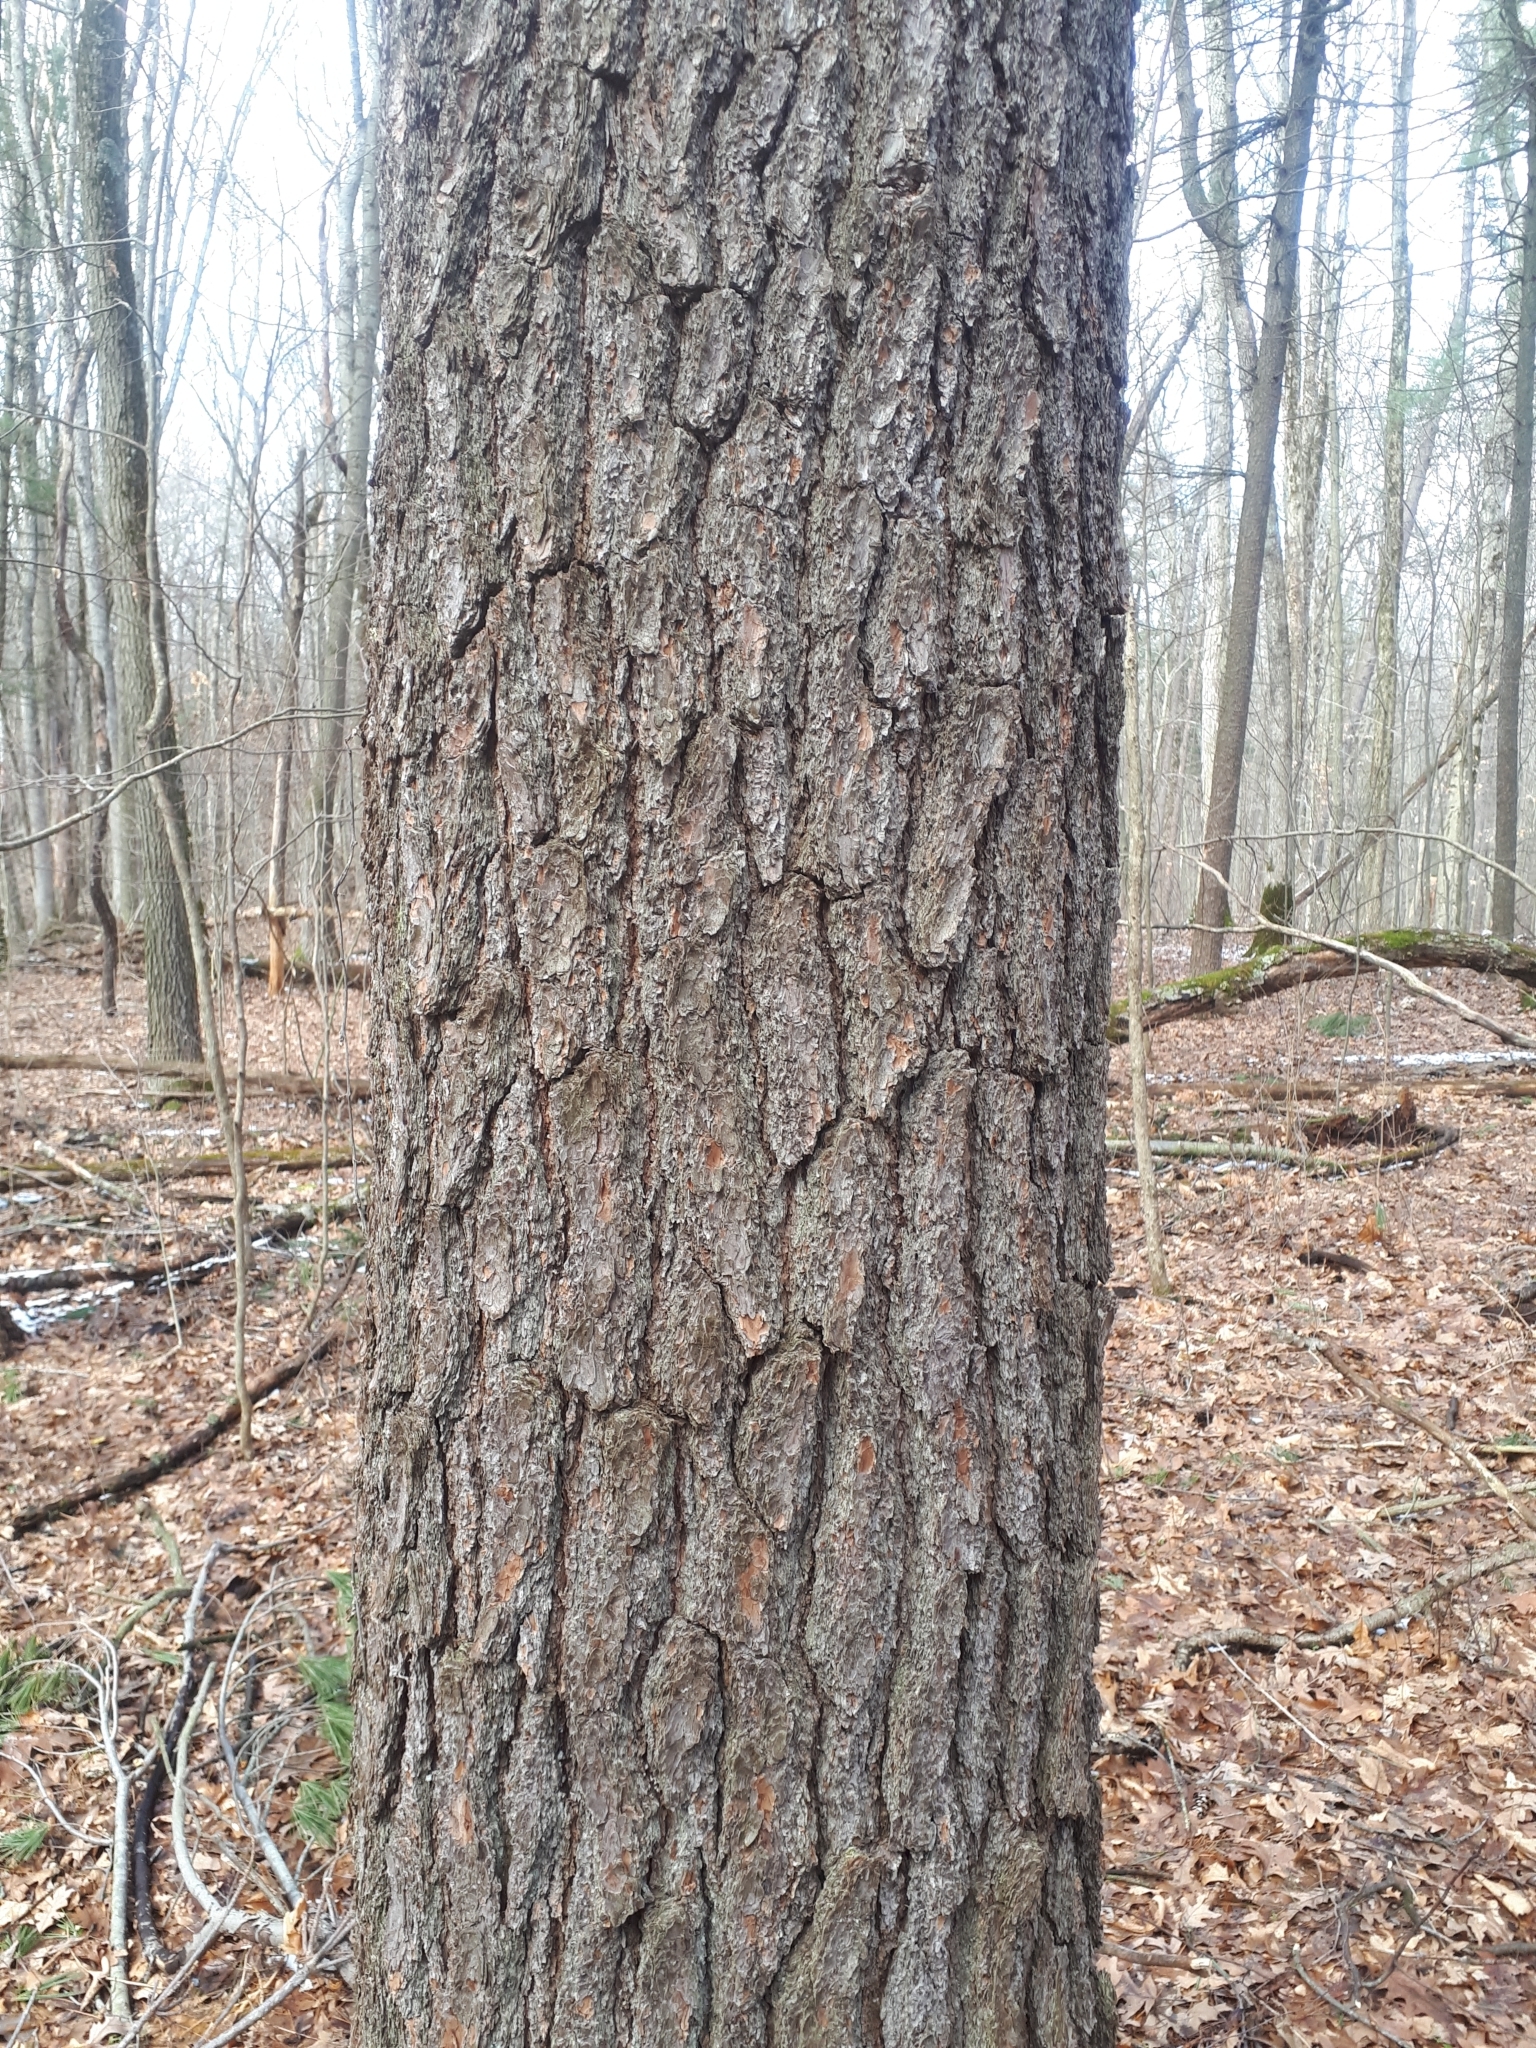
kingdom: Plantae
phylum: Tracheophyta
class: Pinopsida
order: Pinales
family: Pinaceae
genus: Pinus
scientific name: Pinus strobus
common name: Weymouth pine
